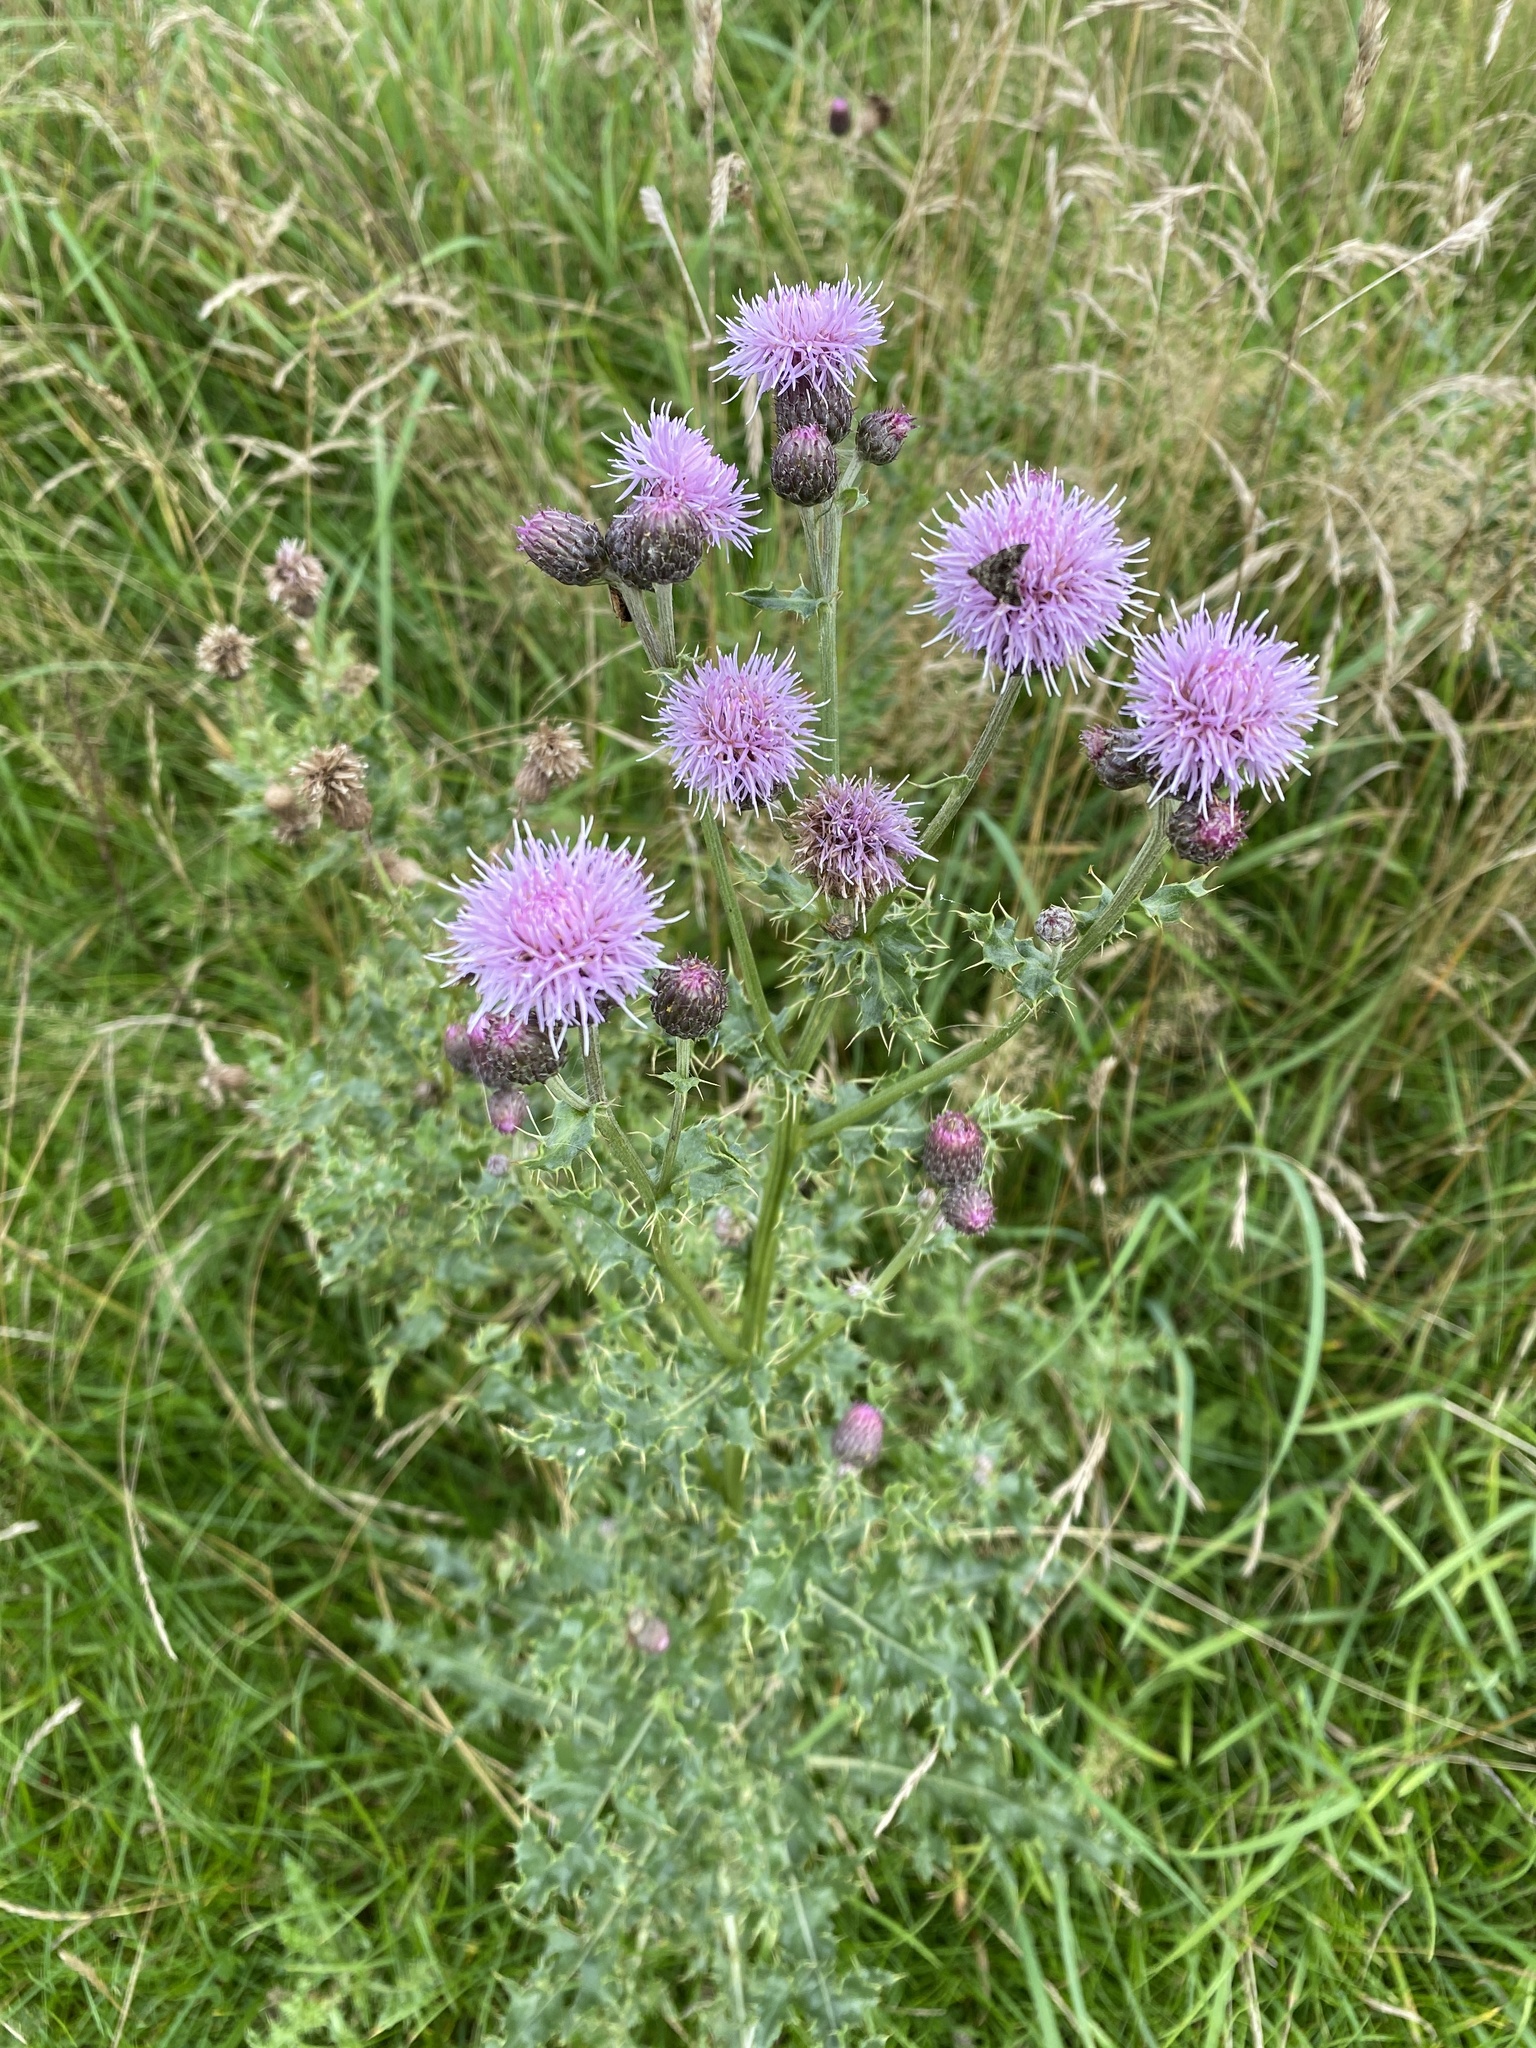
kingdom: Plantae
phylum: Tracheophyta
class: Magnoliopsida
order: Asterales
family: Asteraceae
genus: Cirsium
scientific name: Cirsium arvense
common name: Creeping thistle
